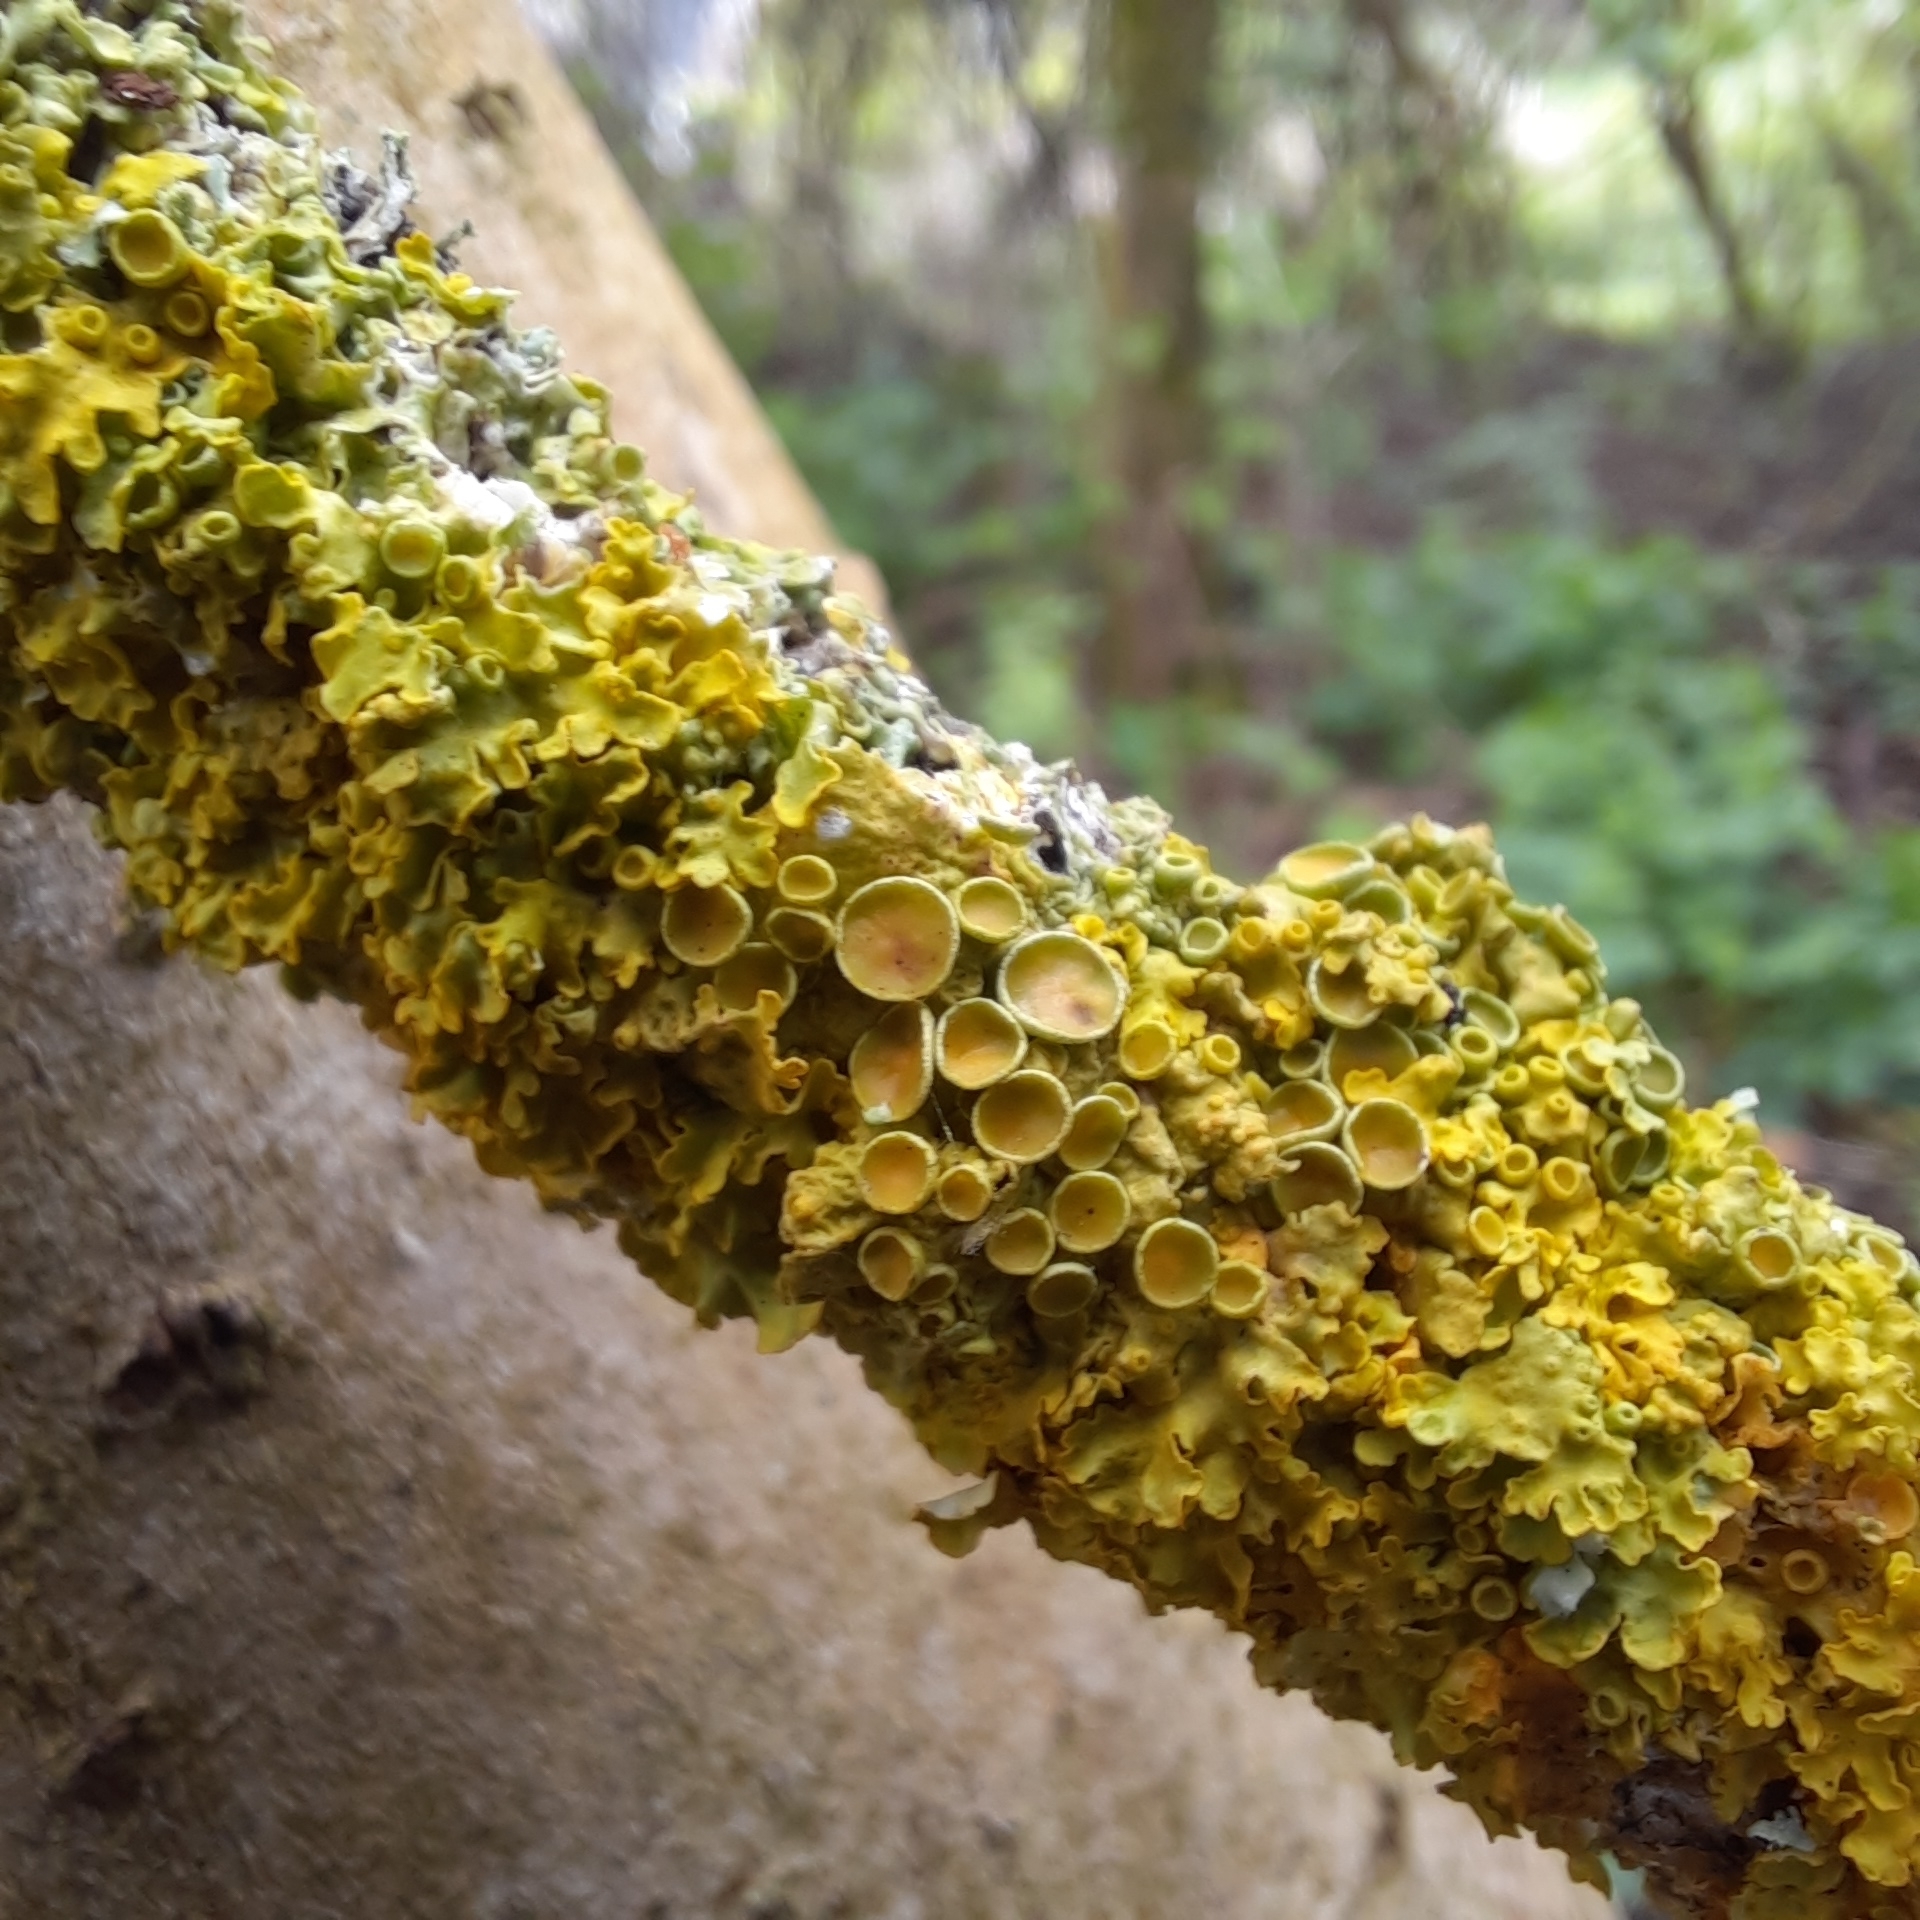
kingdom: Fungi
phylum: Ascomycota
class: Lecanoromycetes
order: Teloschistales
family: Teloschistaceae
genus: Xanthoria
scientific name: Xanthoria parietina
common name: Common orange lichen
